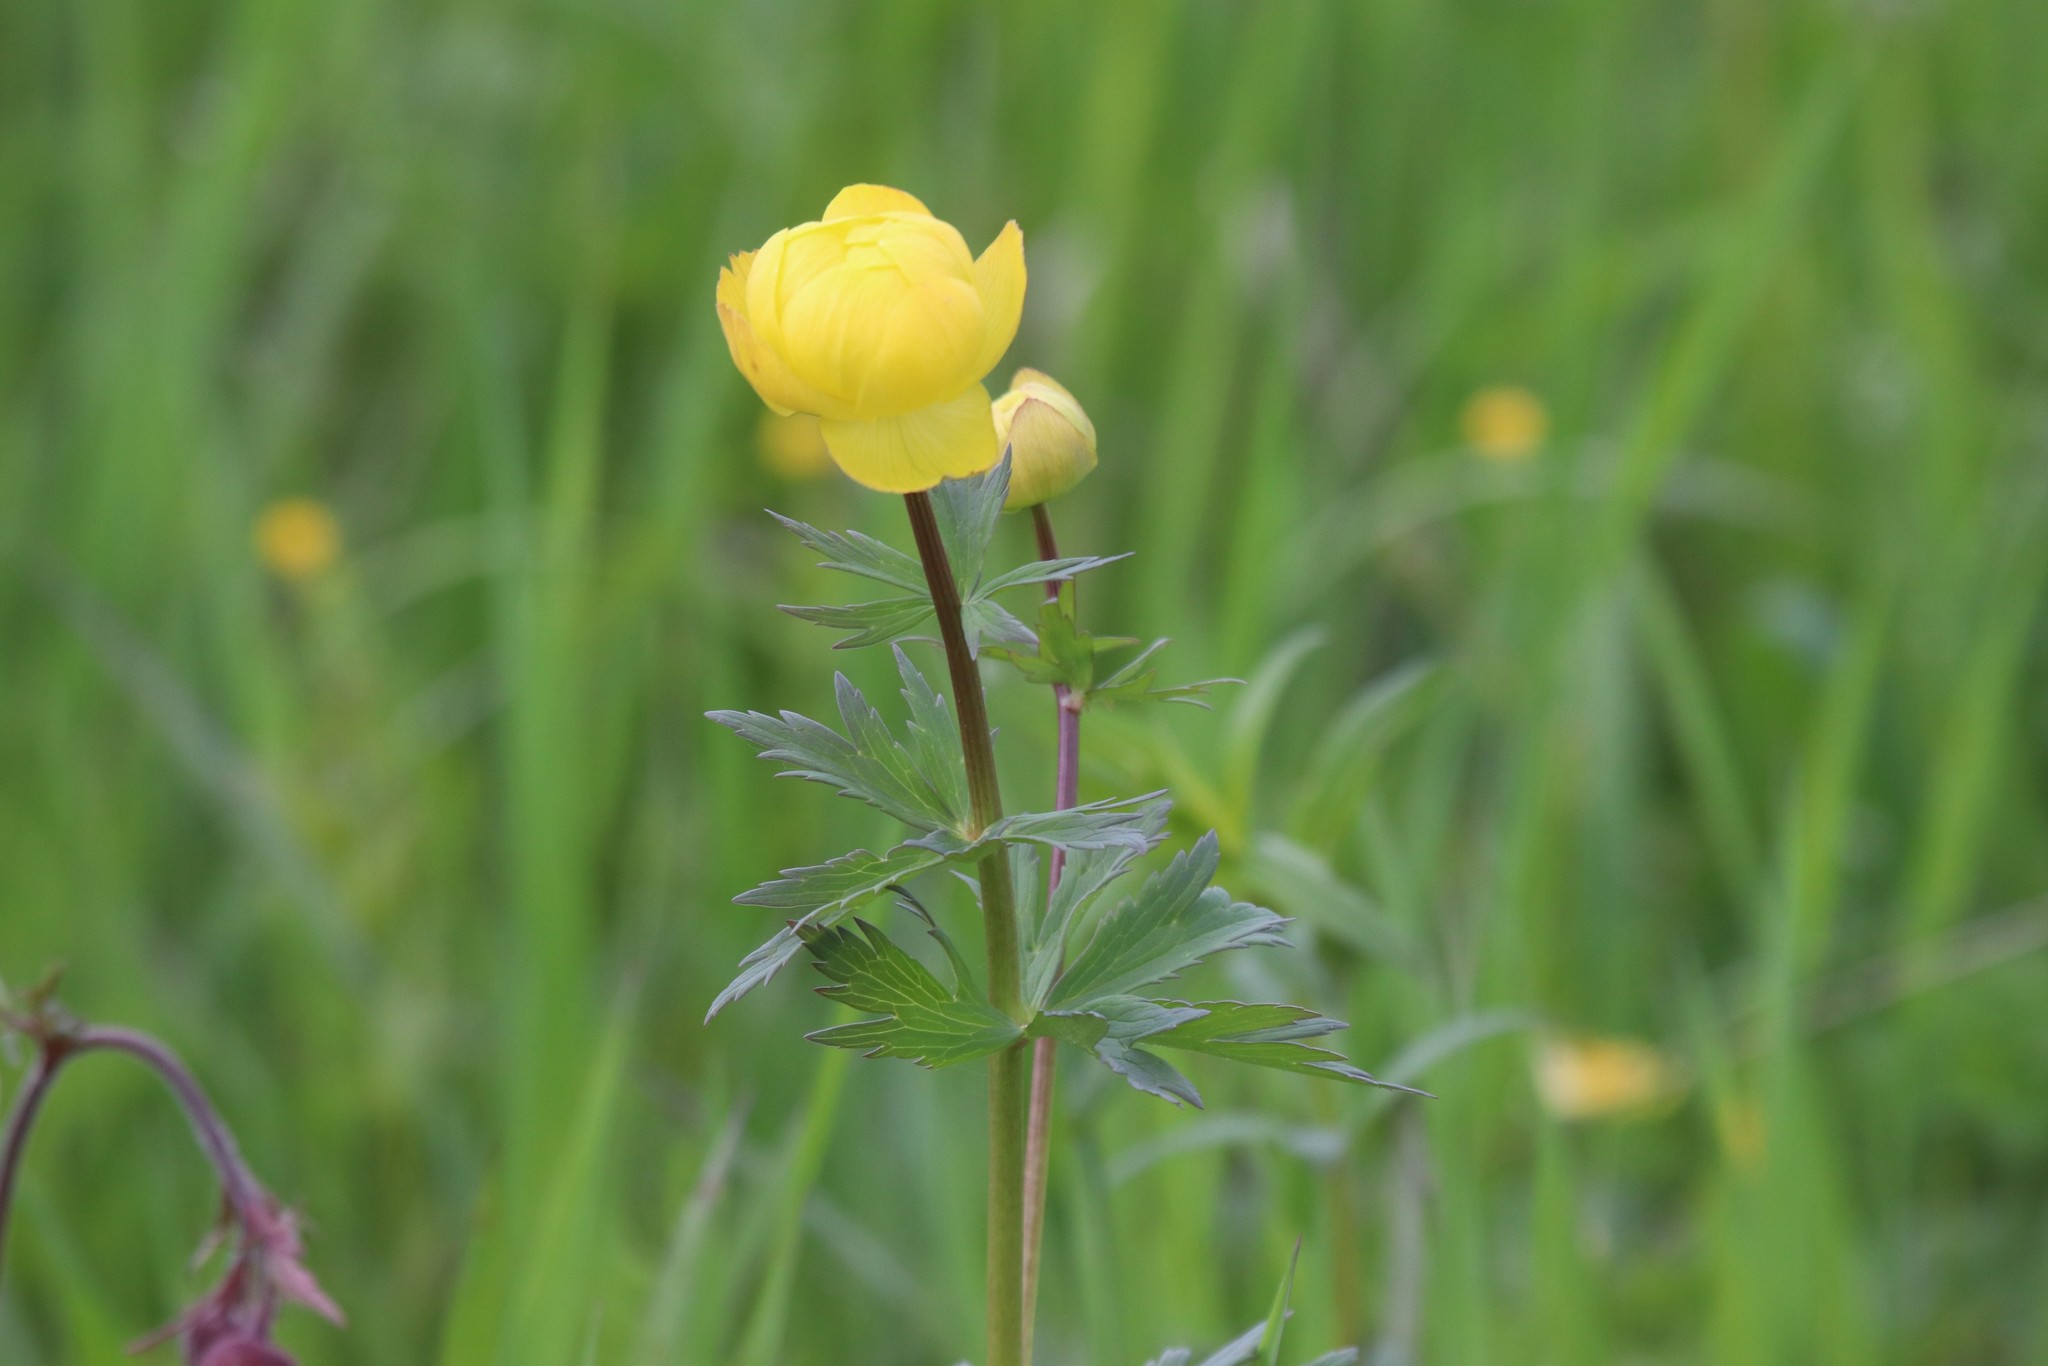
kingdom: Plantae
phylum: Tracheophyta
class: Magnoliopsida
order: Ranunculales
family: Ranunculaceae
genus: Trollius
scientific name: Trollius europaeus
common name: European globeflower
